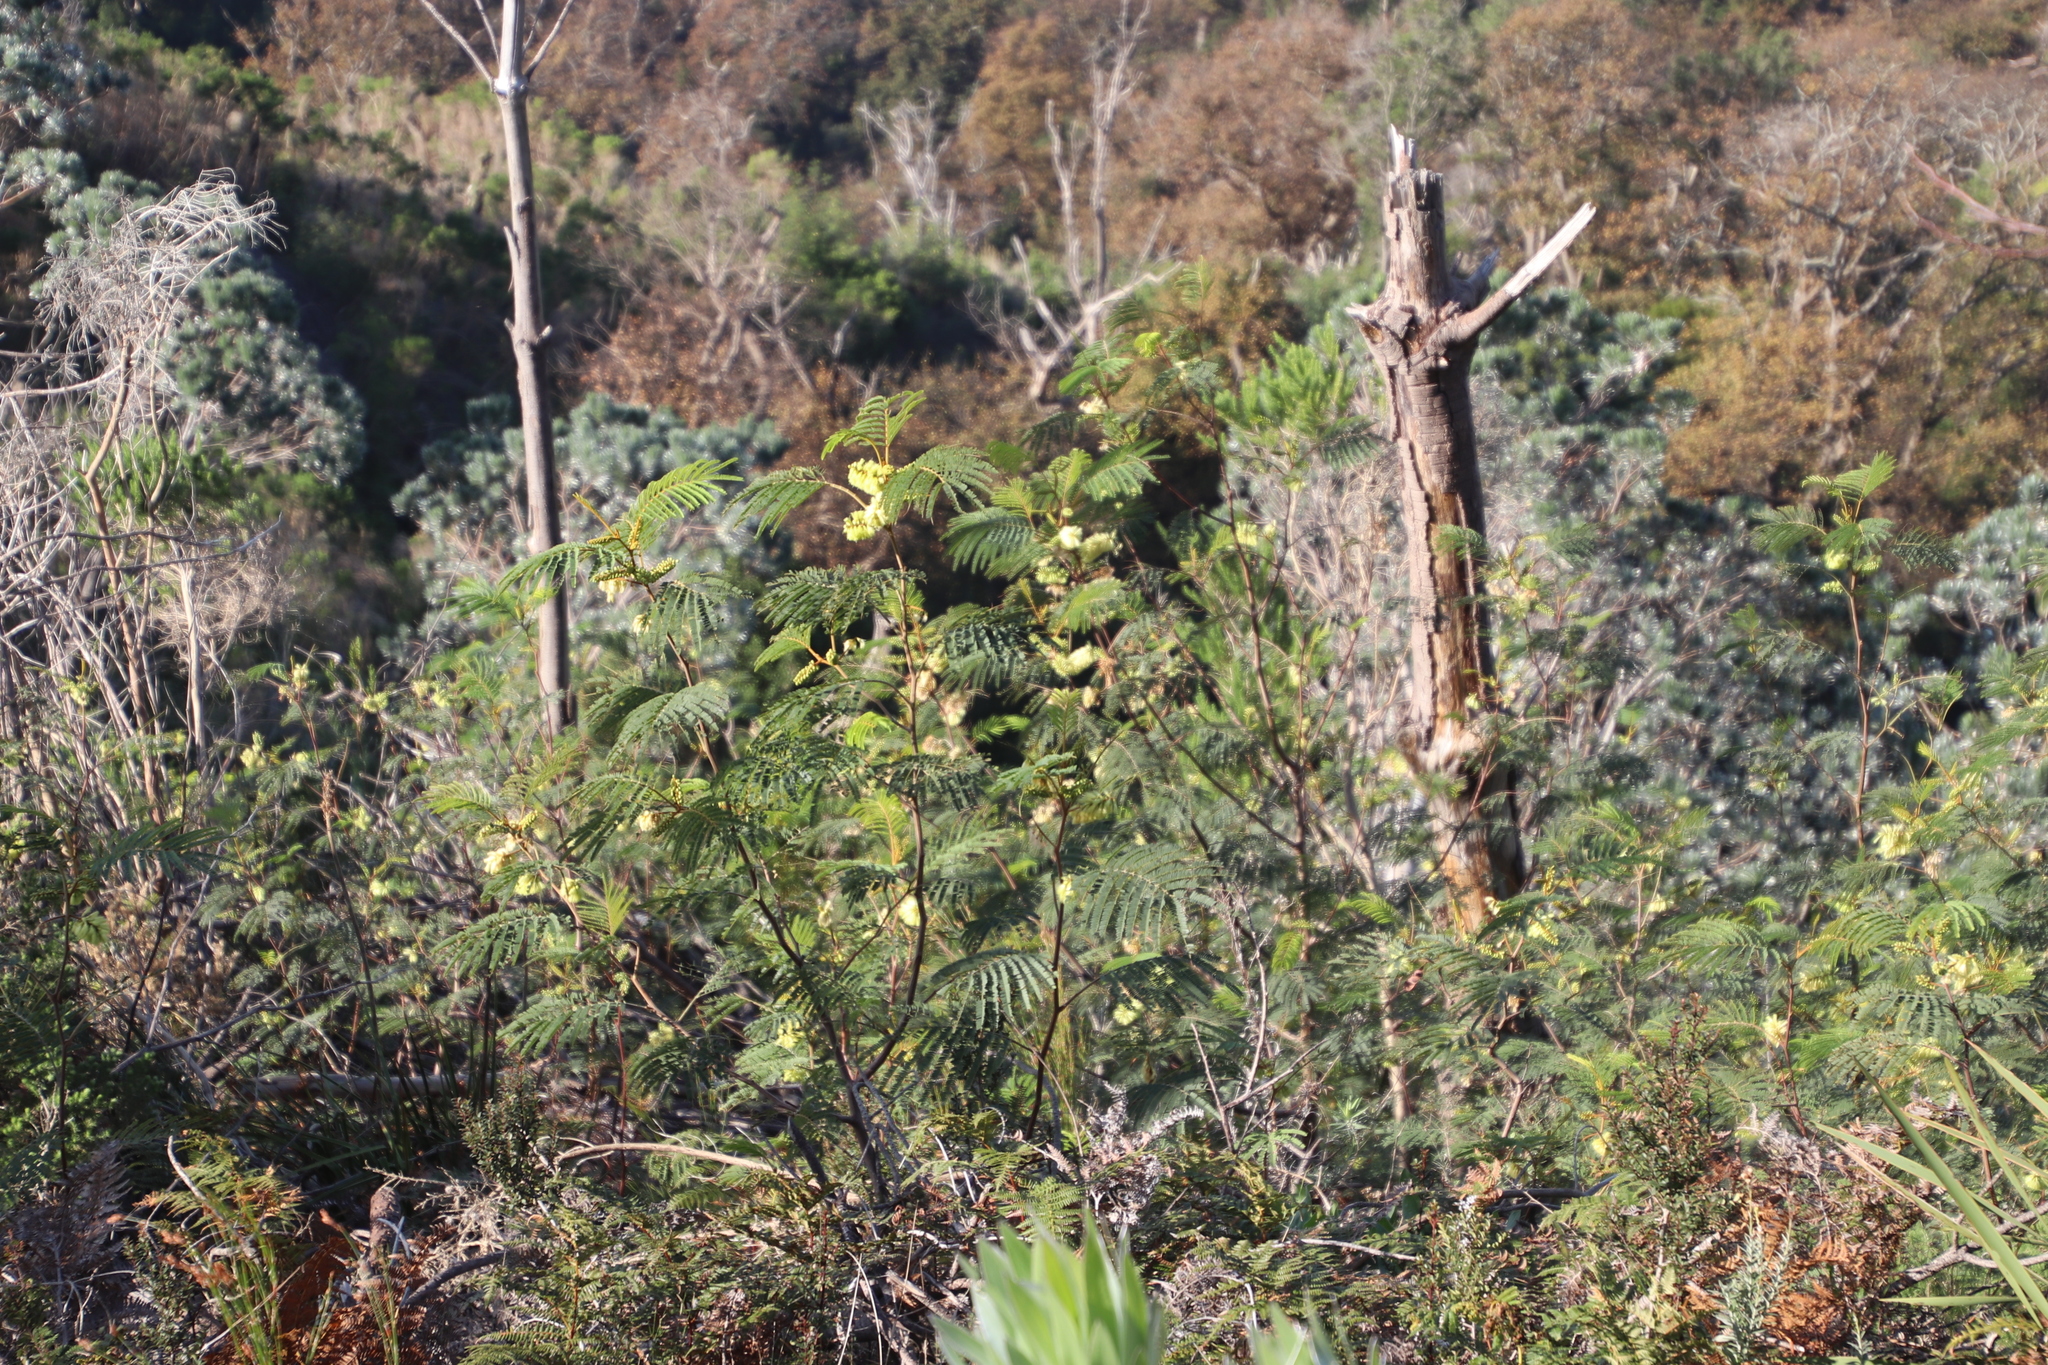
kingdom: Plantae
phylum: Tracheophyta
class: Magnoliopsida
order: Fabales
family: Fabaceae
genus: Paraserianthes
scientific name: Paraserianthes lophantha
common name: Plume albizia
